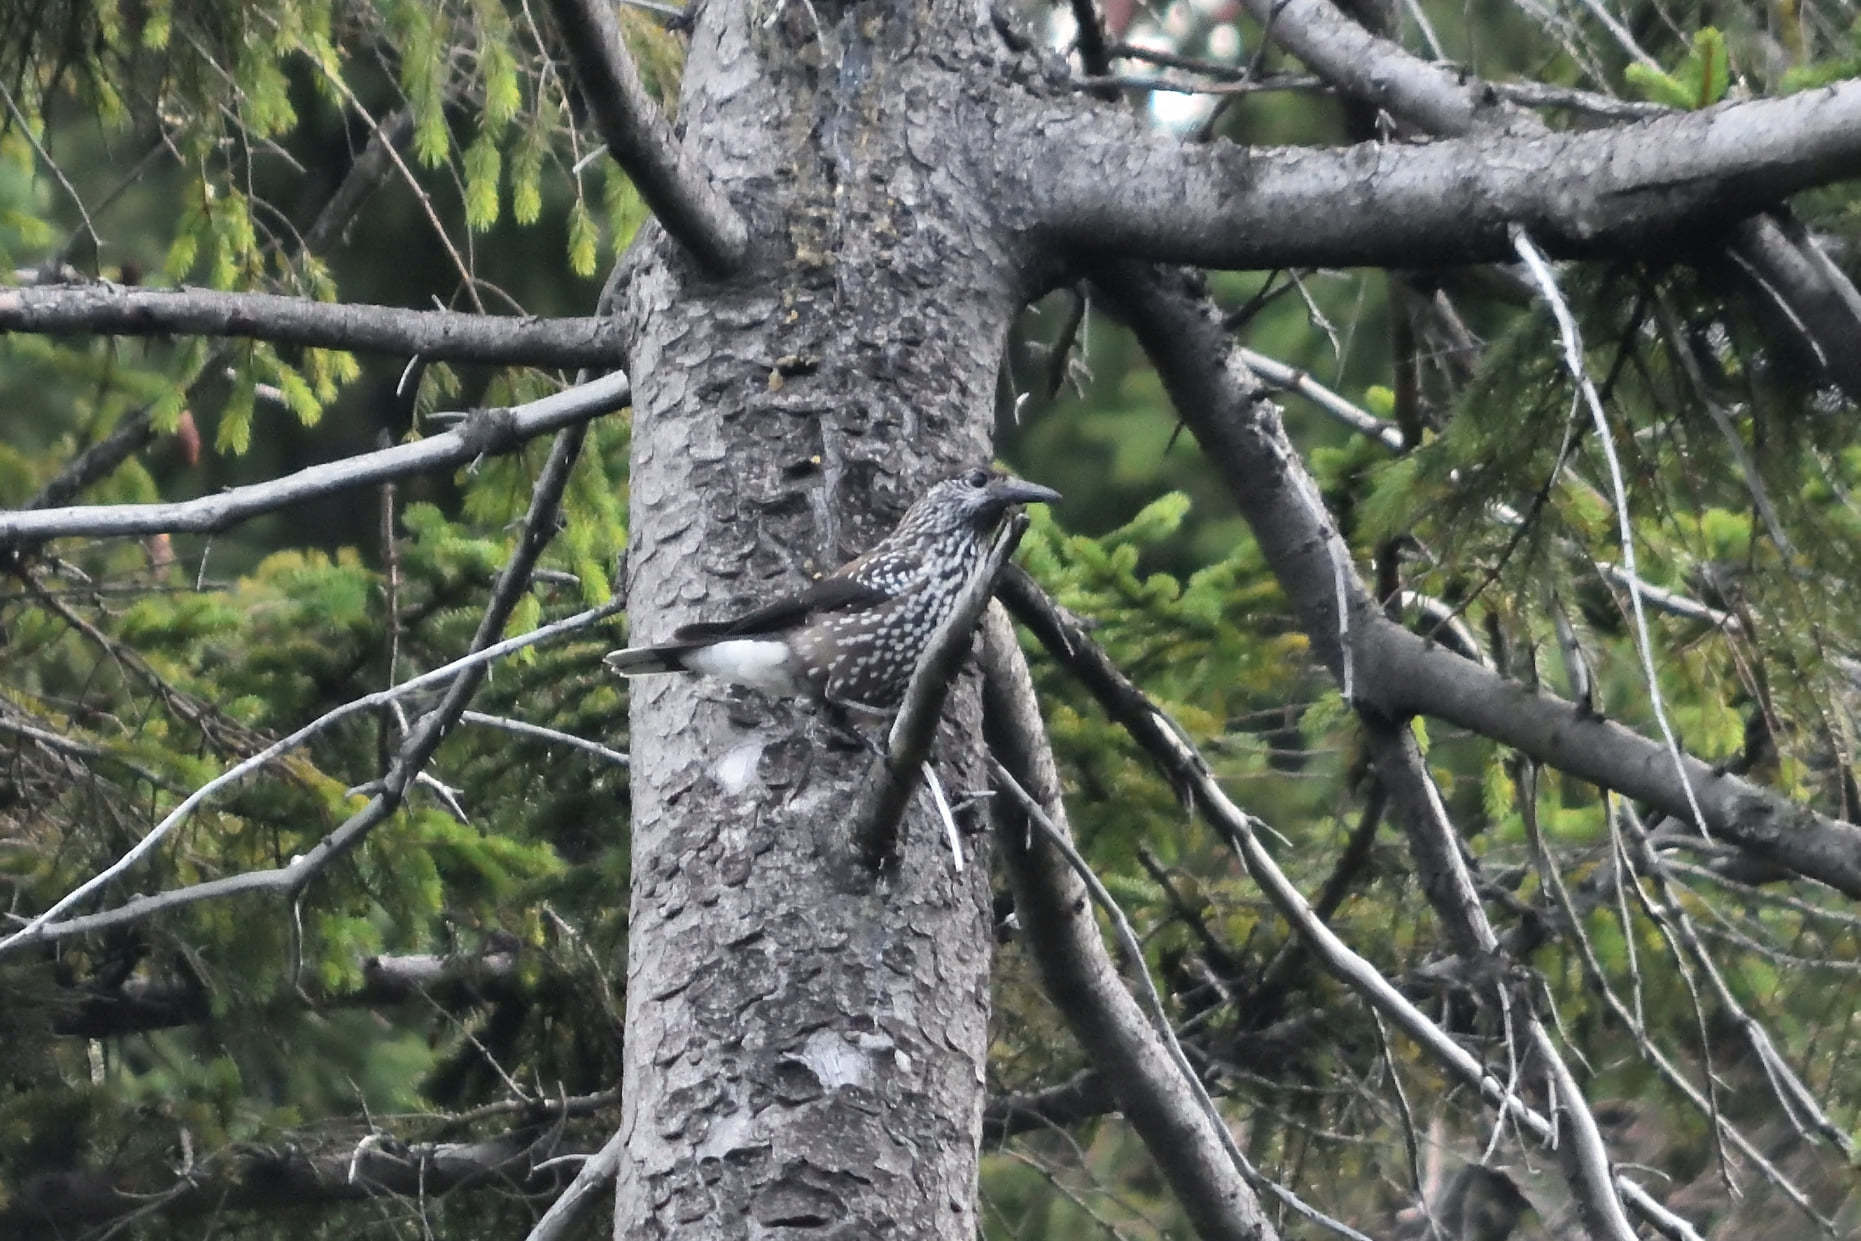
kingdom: Animalia
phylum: Chordata
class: Aves
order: Passeriformes
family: Corvidae
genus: Nucifraga
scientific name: Nucifraga caryocatactes
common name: Spotted nutcracker
